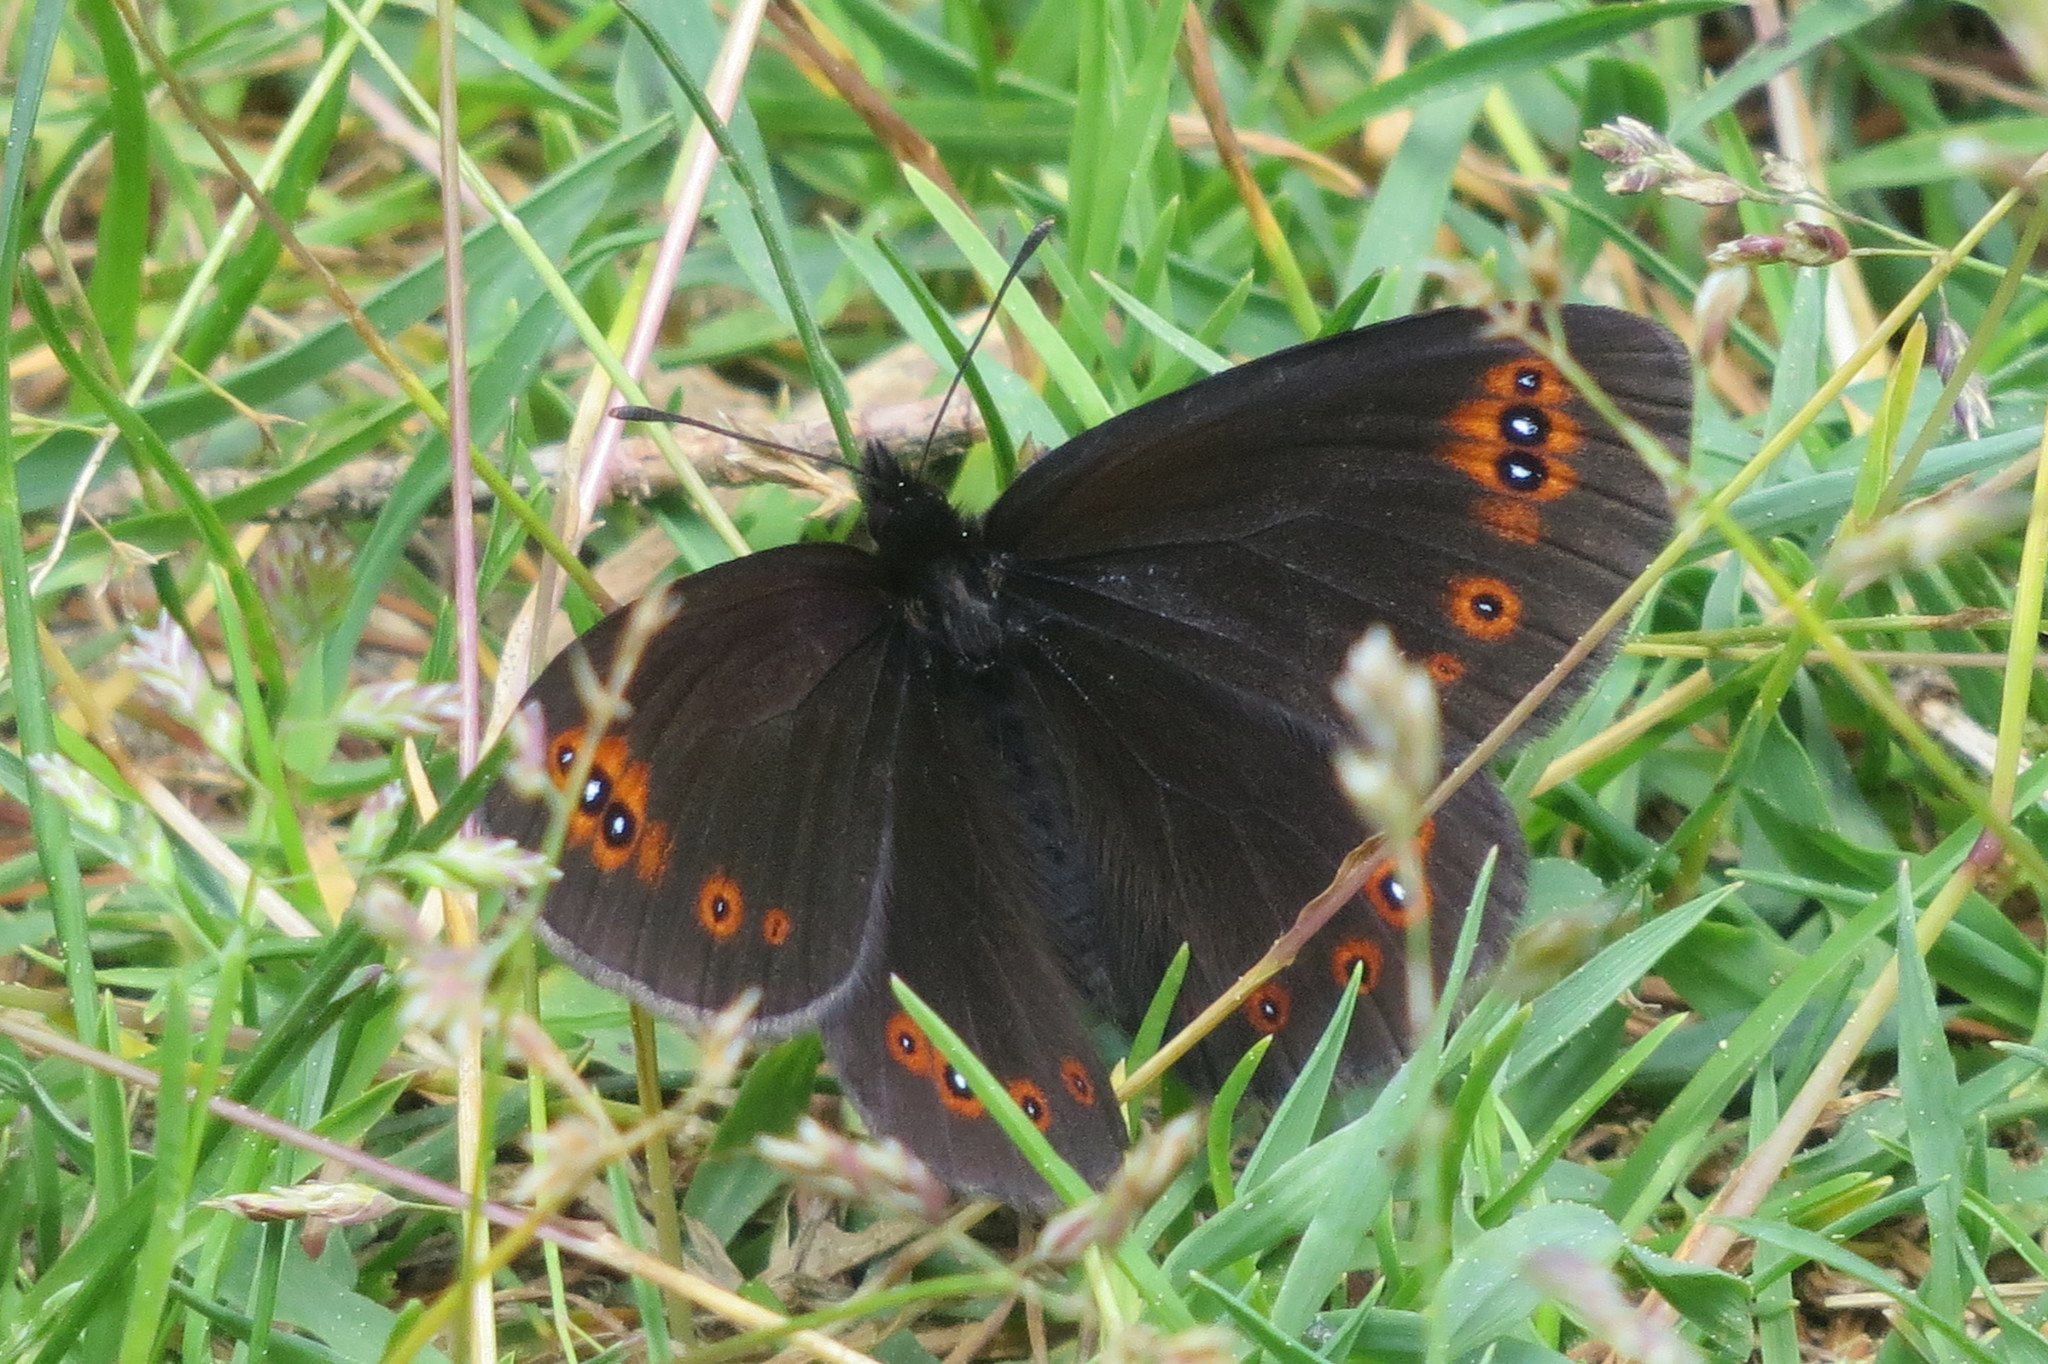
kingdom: Animalia
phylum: Arthropoda
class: Insecta
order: Lepidoptera
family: Nymphalidae
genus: Erebia
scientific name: Erebia medusa
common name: Woodland ringlet
